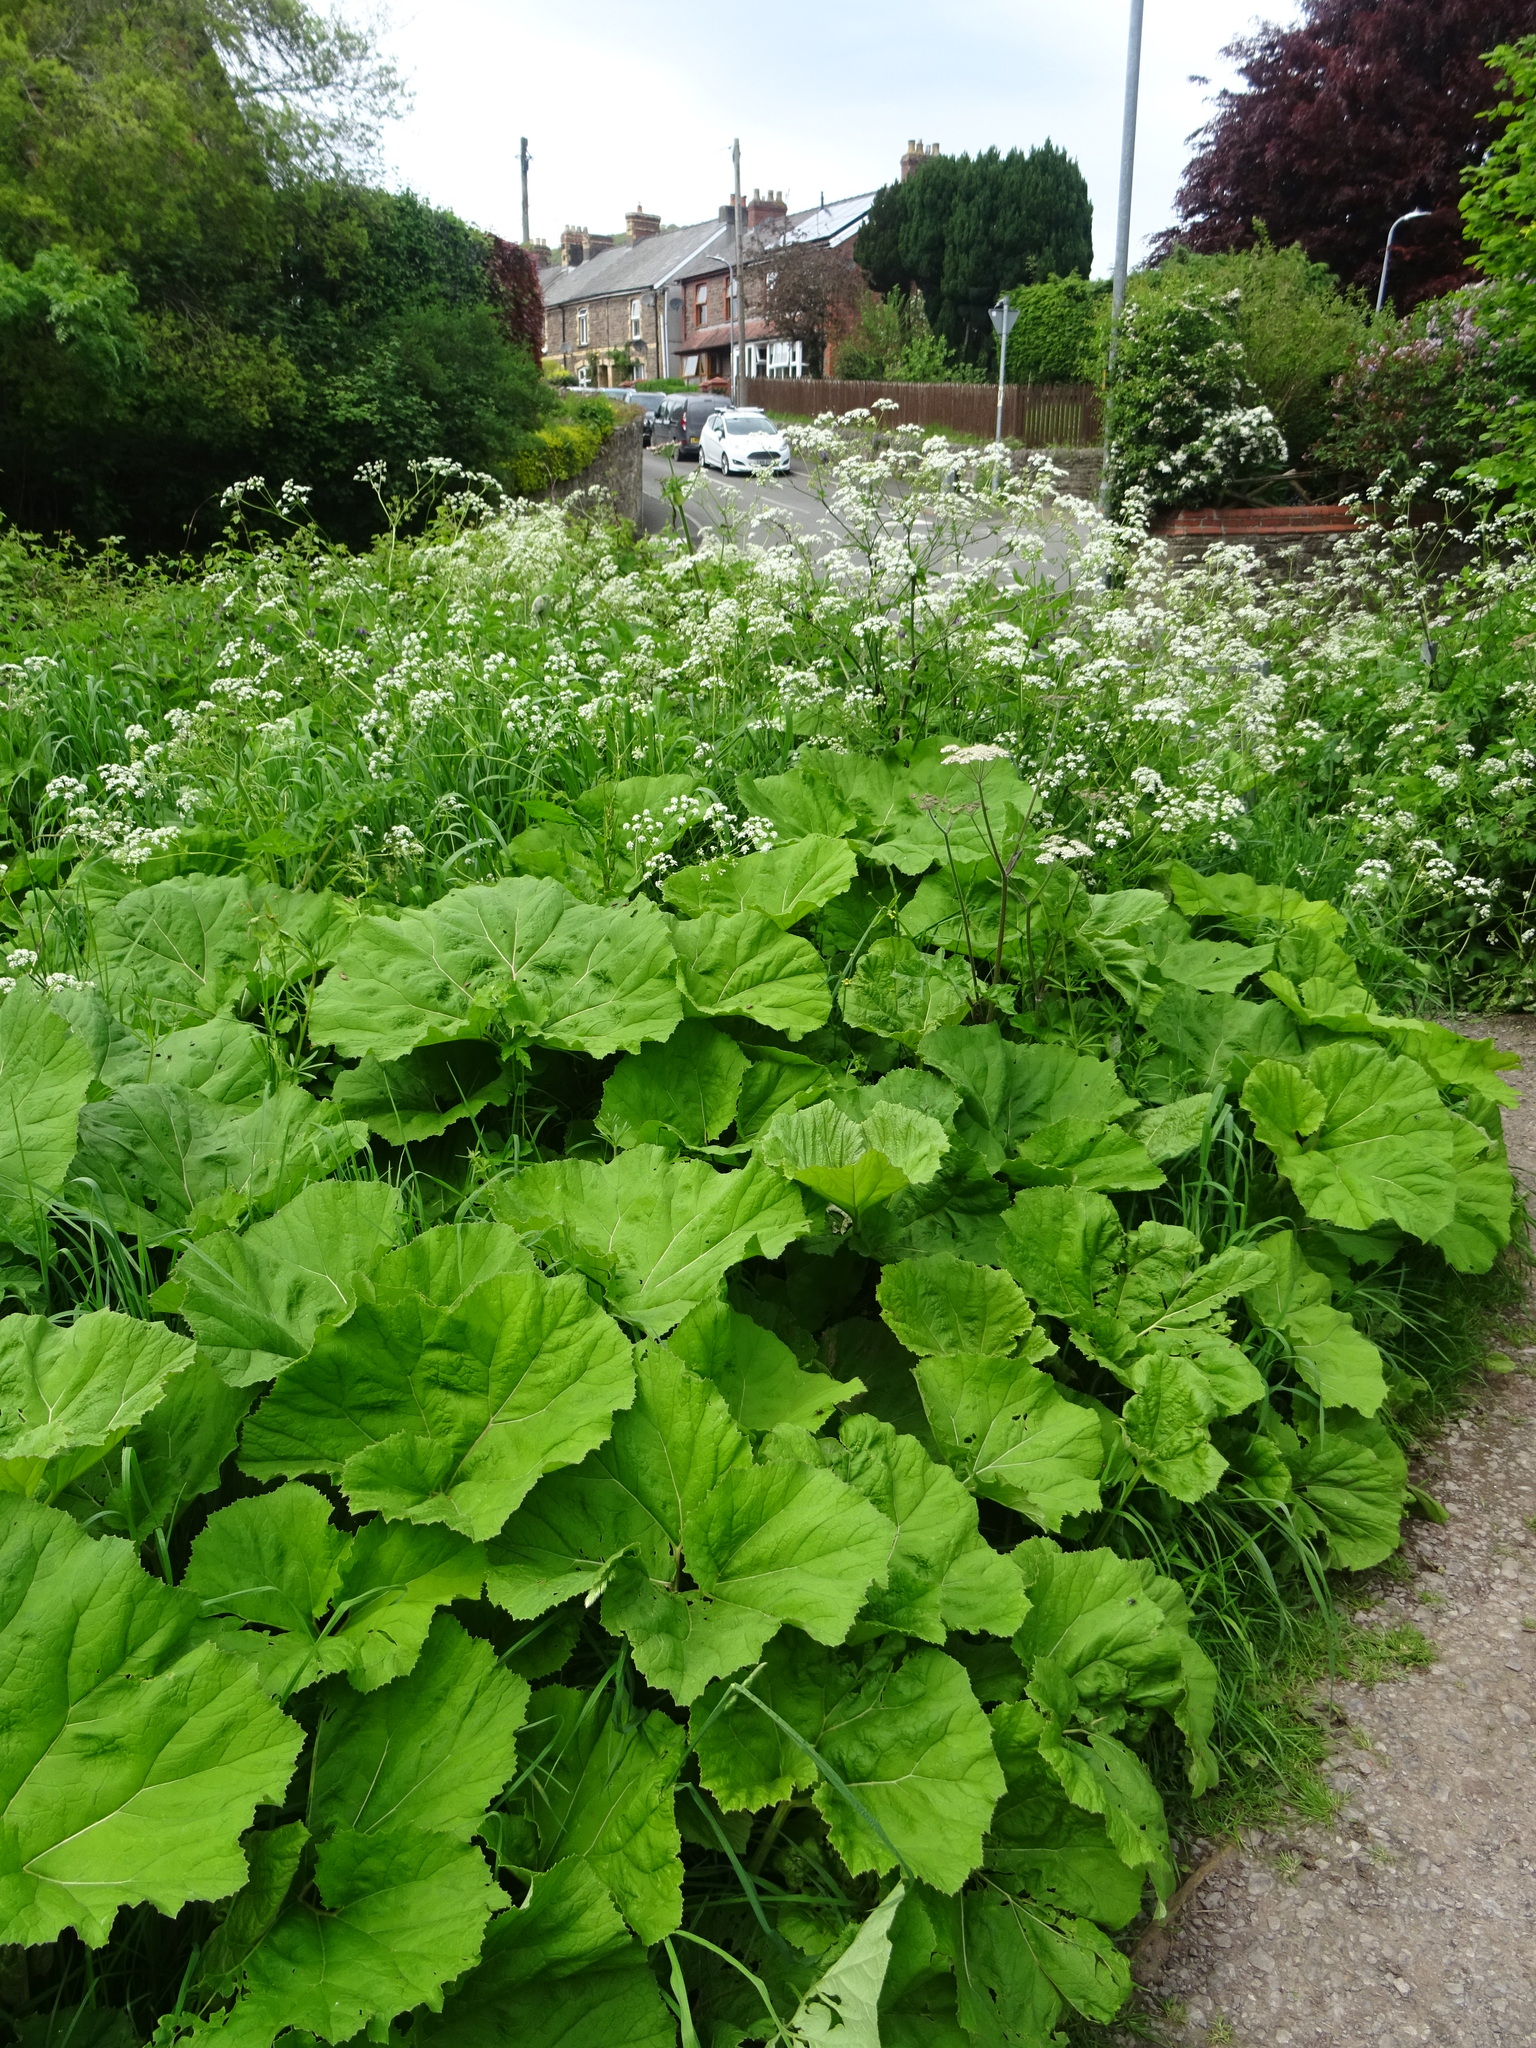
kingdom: Plantae
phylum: Tracheophyta
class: Magnoliopsida
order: Asterales
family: Asteraceae
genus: Petasites
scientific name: Petasites hybridus
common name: Butterbur
